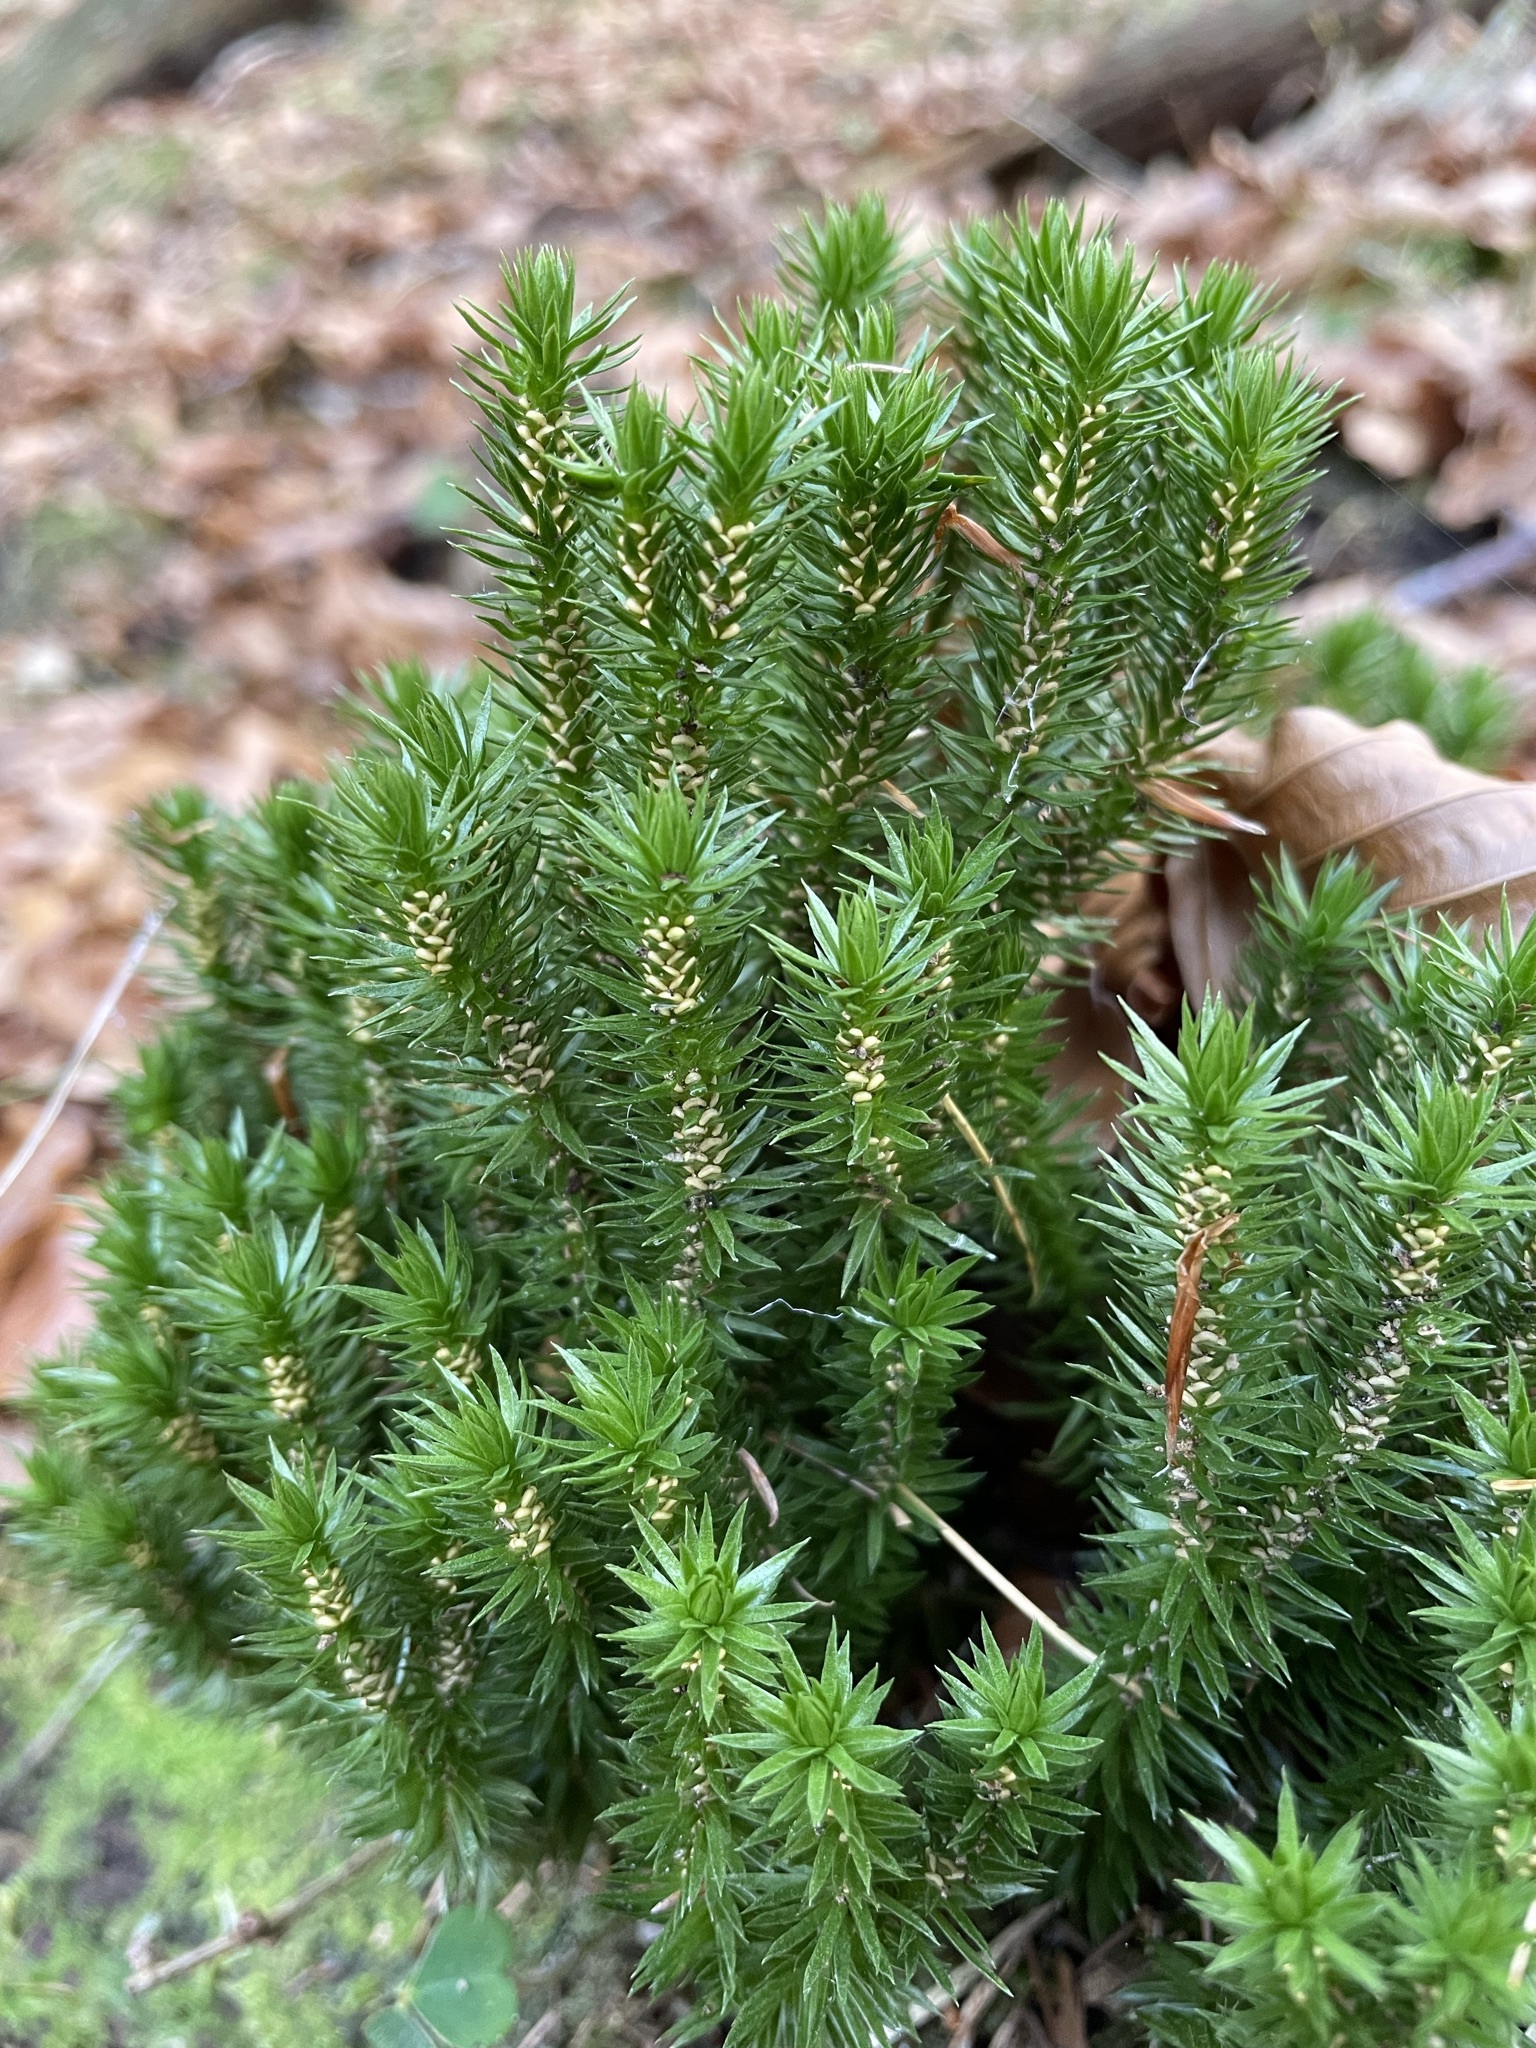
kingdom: Plantae
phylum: Tracheophyta
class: Lycopodiopsida
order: Lycopodiales
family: Lycopodiaceae
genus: Huperzia
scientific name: Huperzia selago
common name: Northern firmoss
